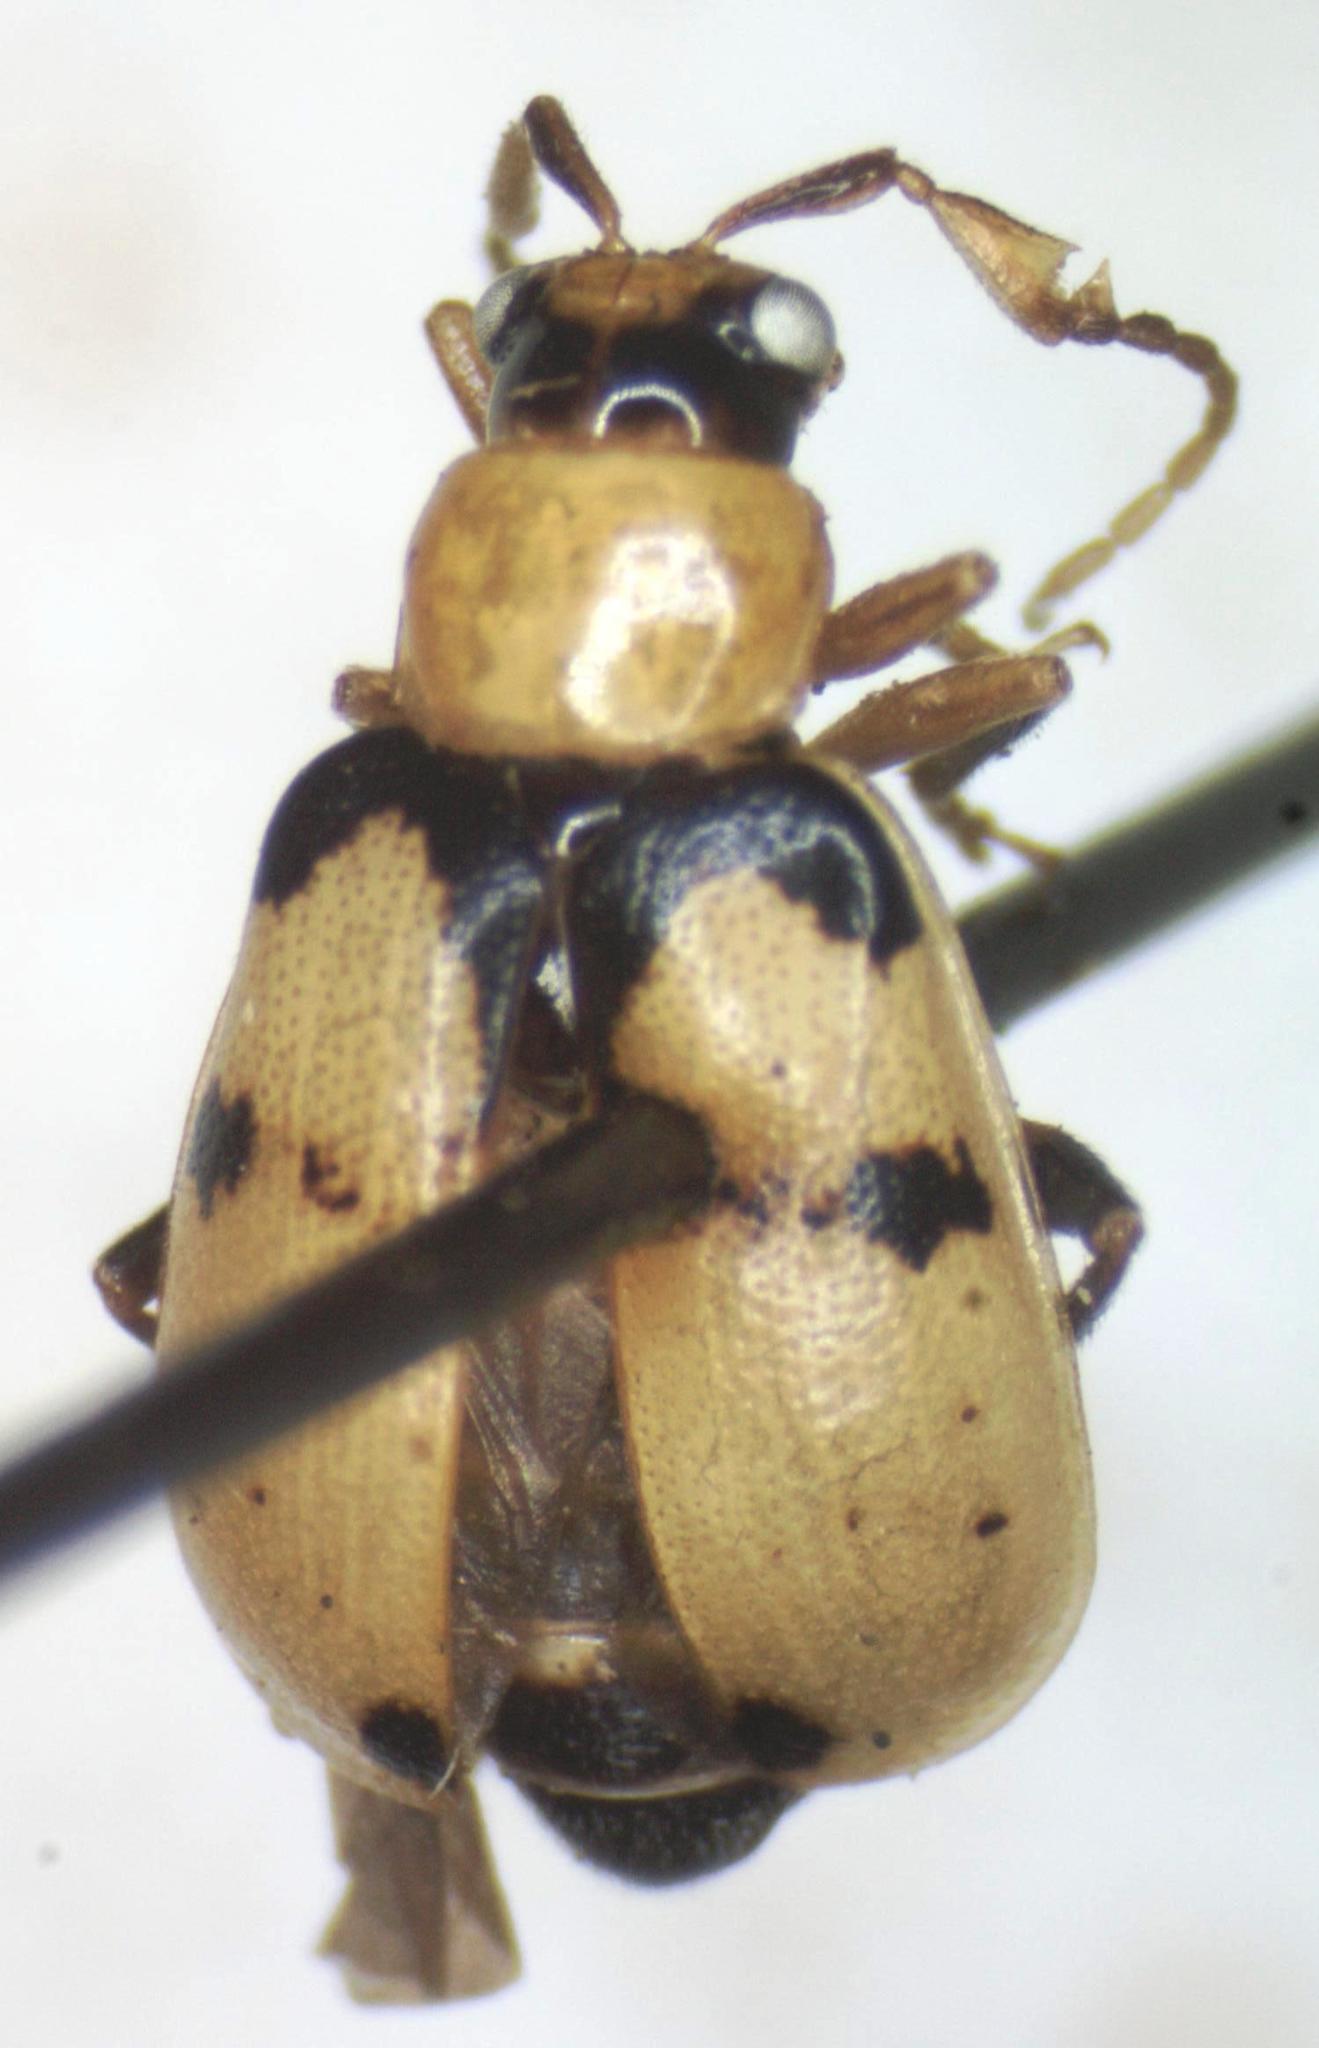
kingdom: Animalia
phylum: Arthropoda
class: Insecta
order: Coleoptera
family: Chrysomelidae
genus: Cerotoma
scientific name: Cerotoma atrofasciata
